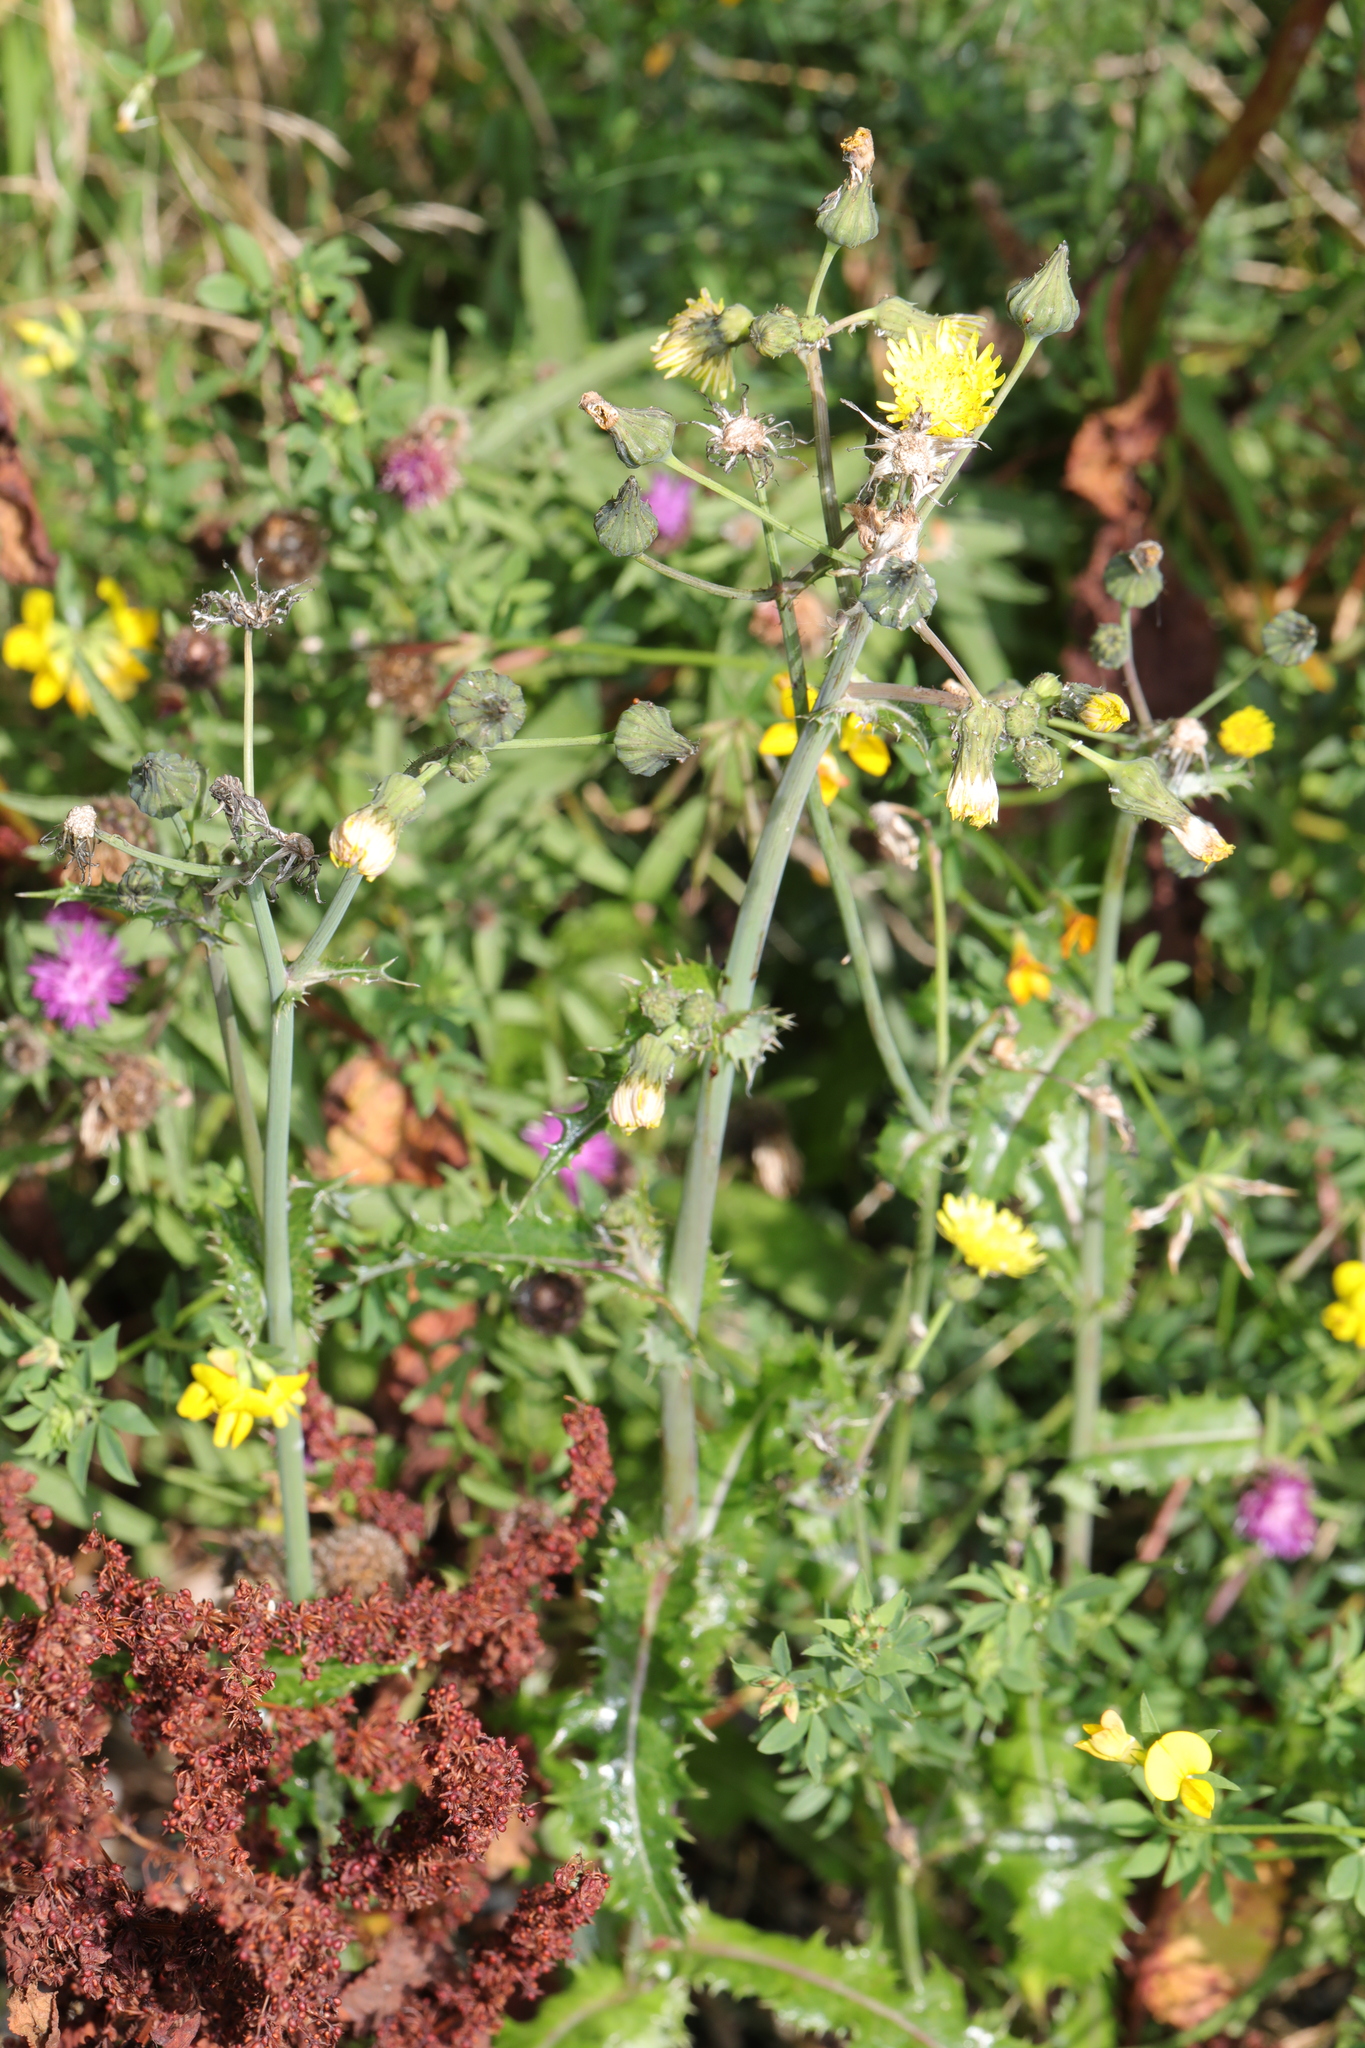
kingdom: Plantae
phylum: Tracheophyta
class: Magnoliopsida
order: Asterales
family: Asteraceae
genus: Sonchus
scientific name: Sonchus asper
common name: Prickly sow-thistle
